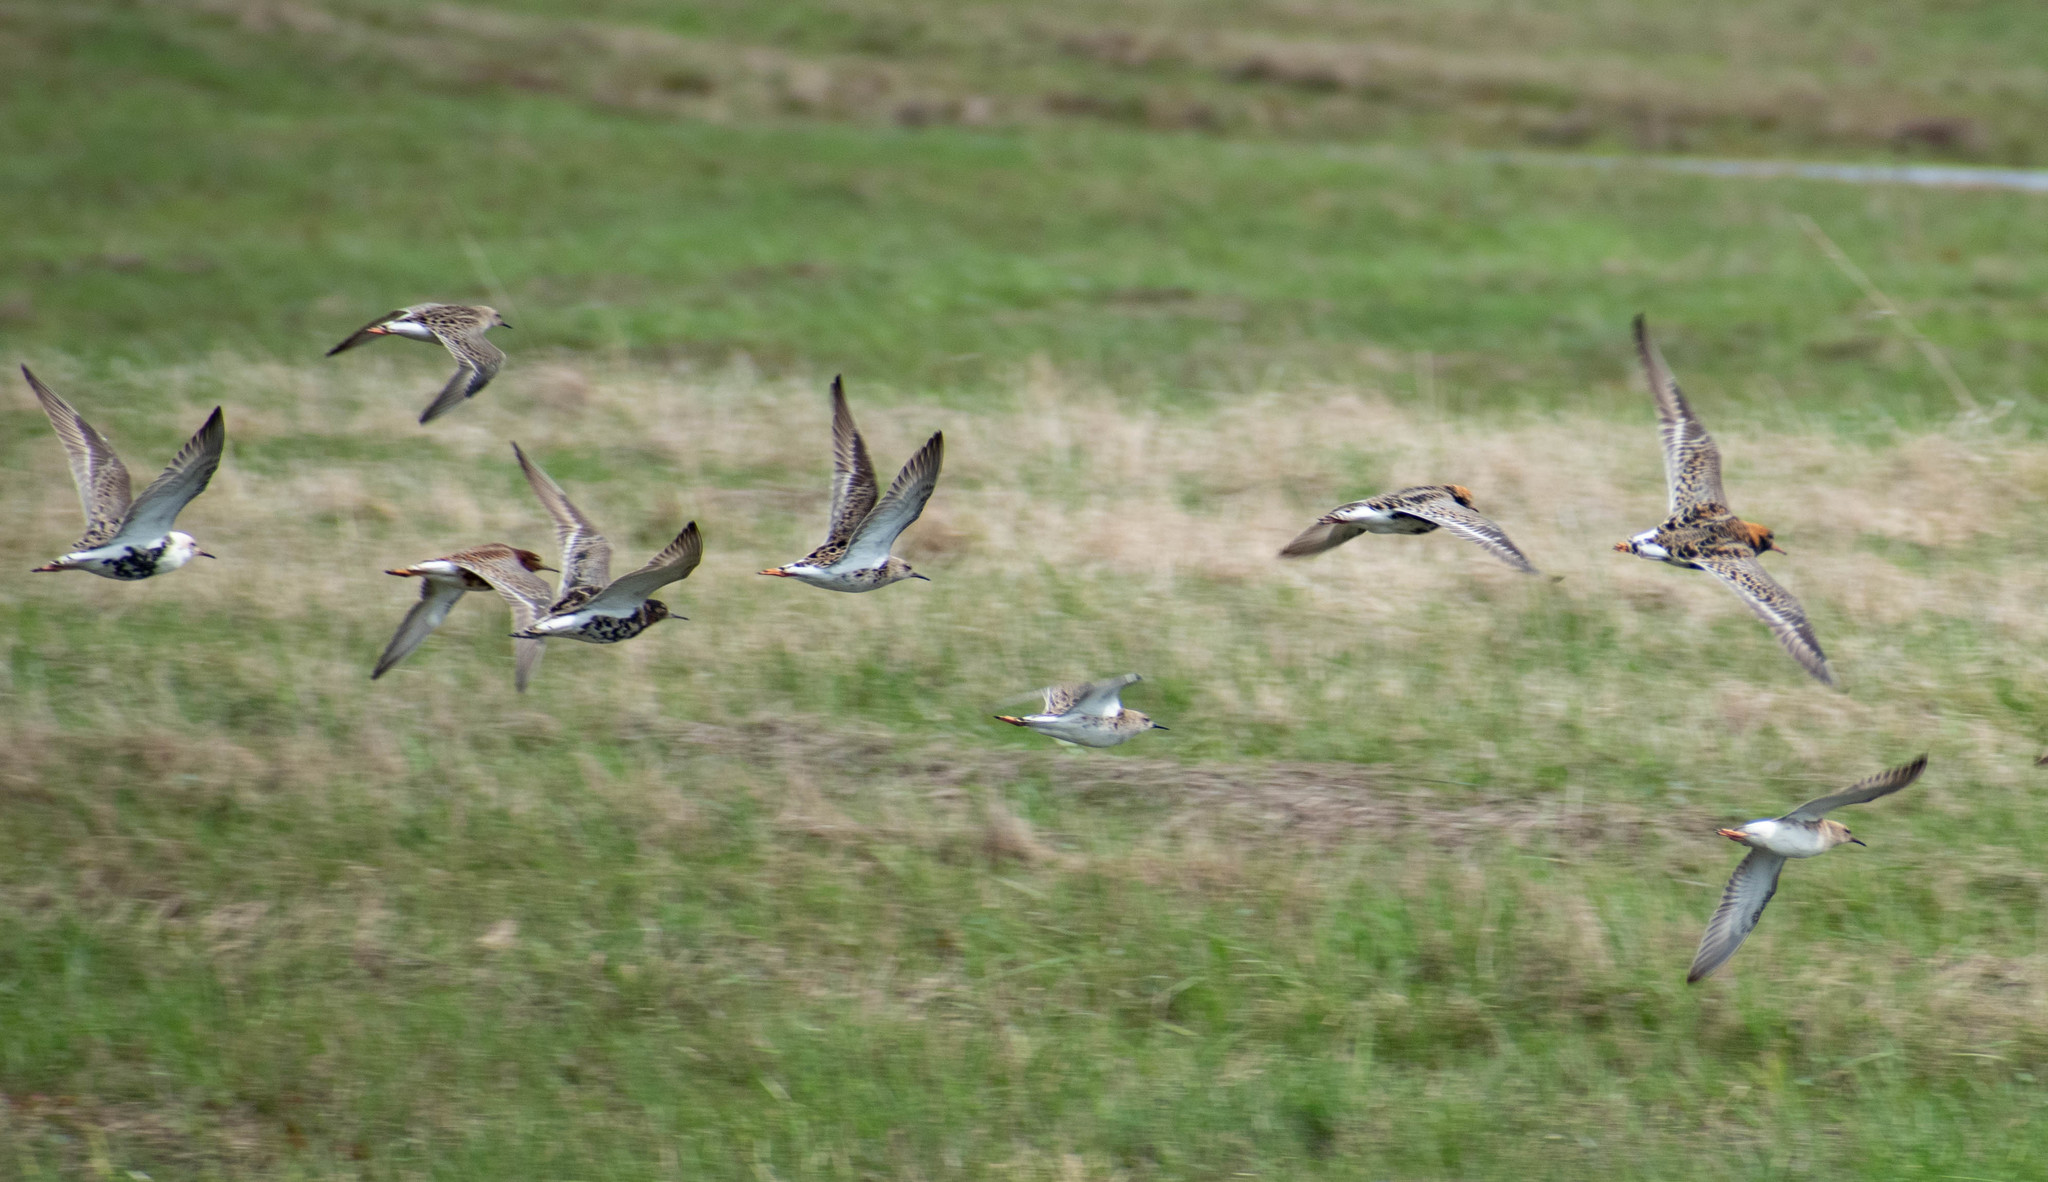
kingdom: Animalia
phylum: Chordata
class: Aves
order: Charadriiformes
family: Scolopacidae
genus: Calidris
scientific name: Calidris pugnax
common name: Ruff
